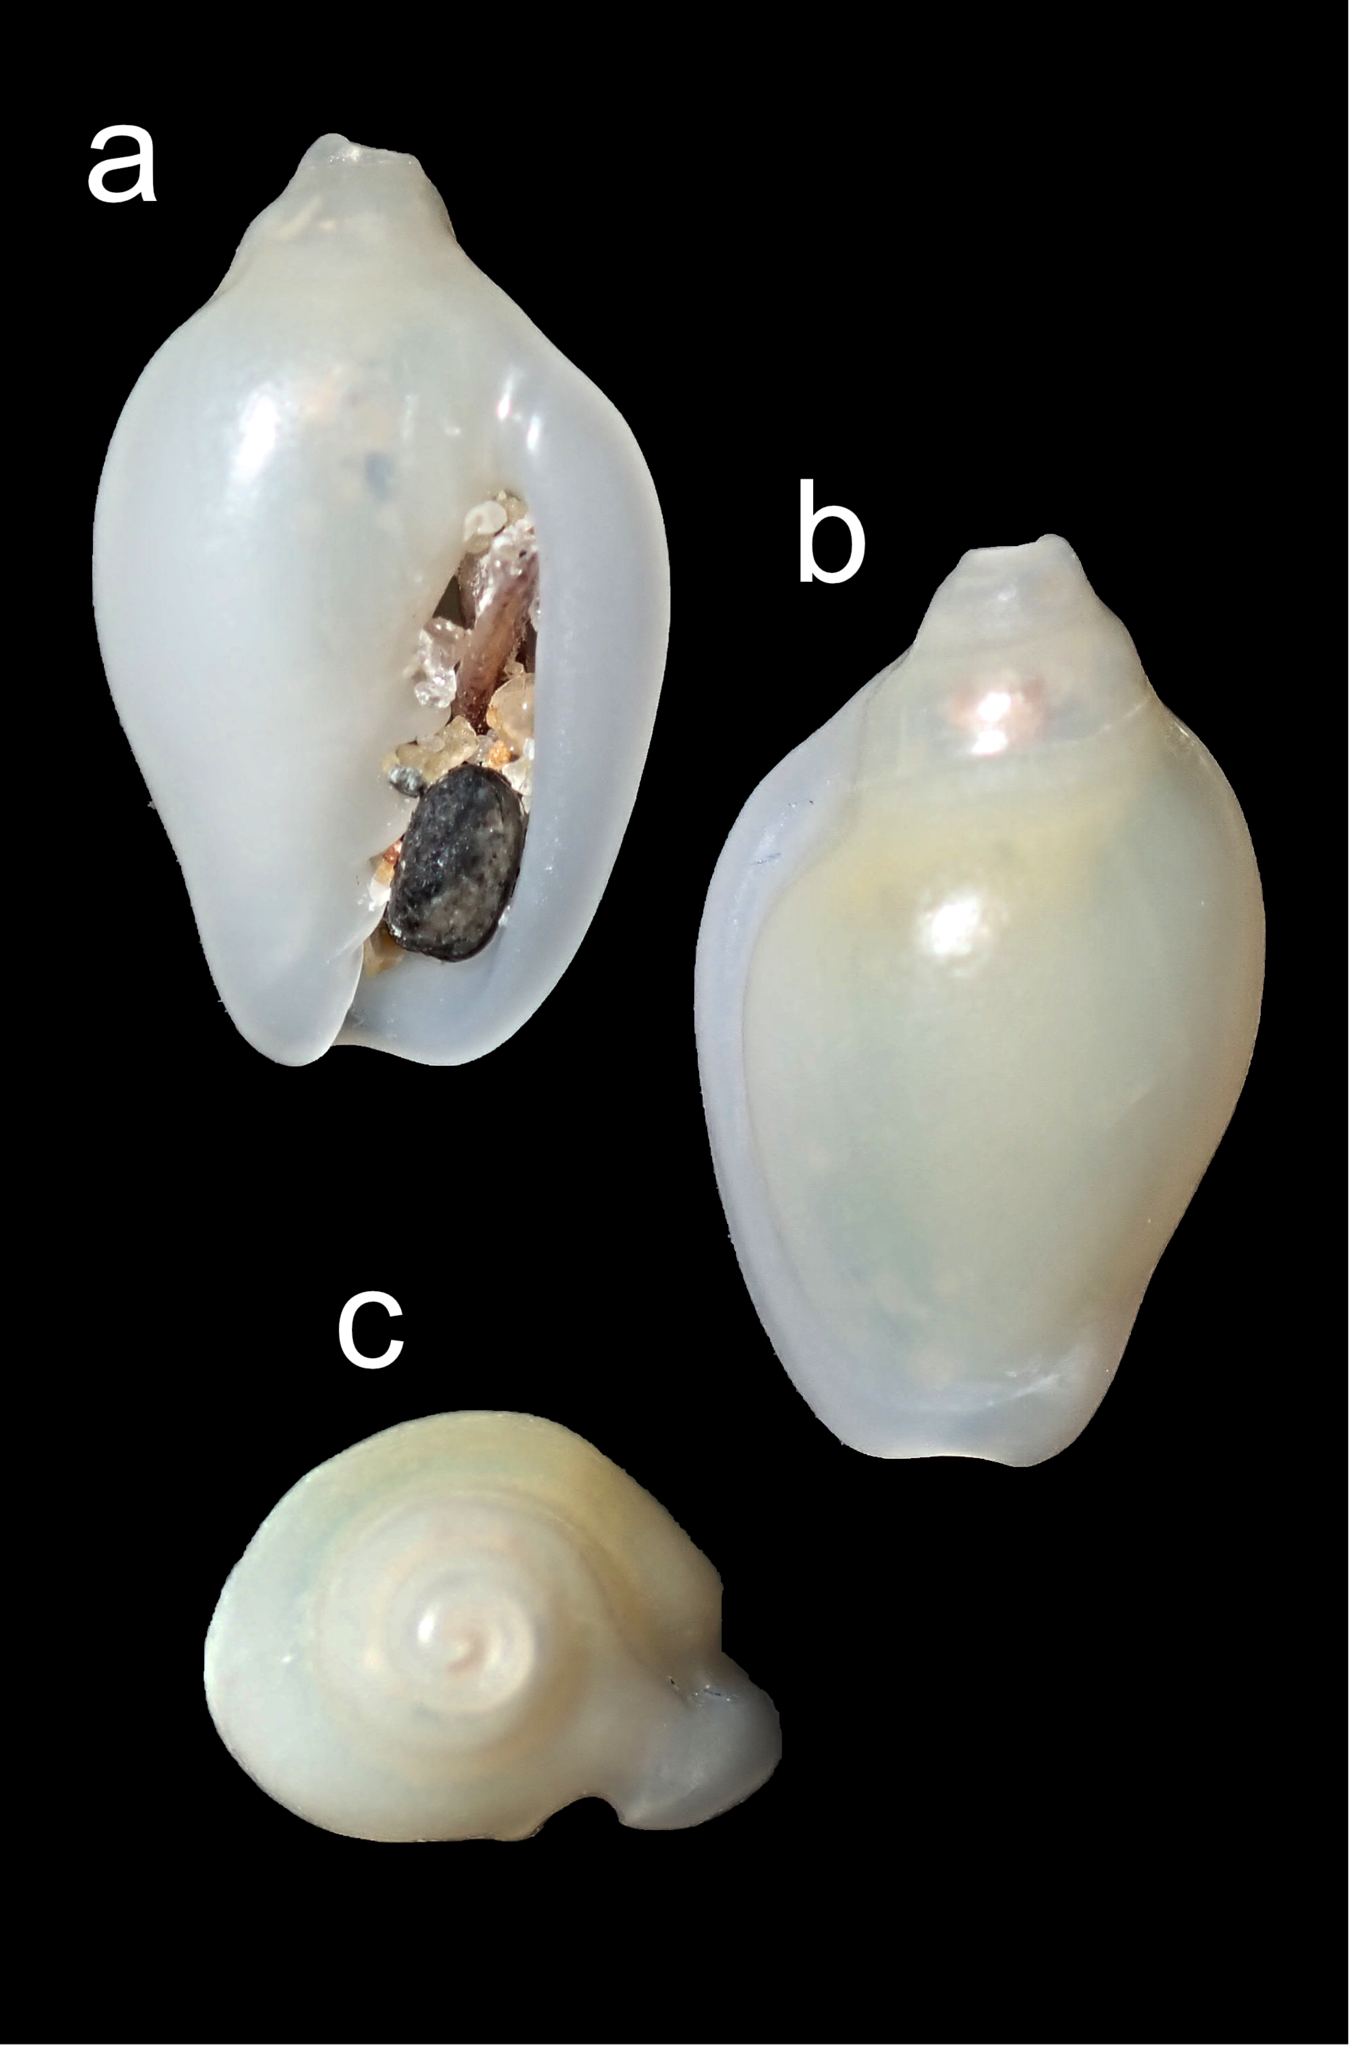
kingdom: Animalia
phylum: Mollusca
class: Gastropoda
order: Neogastropoda
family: Marginellidae
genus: Austroginella
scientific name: Austroginella johnstoni
